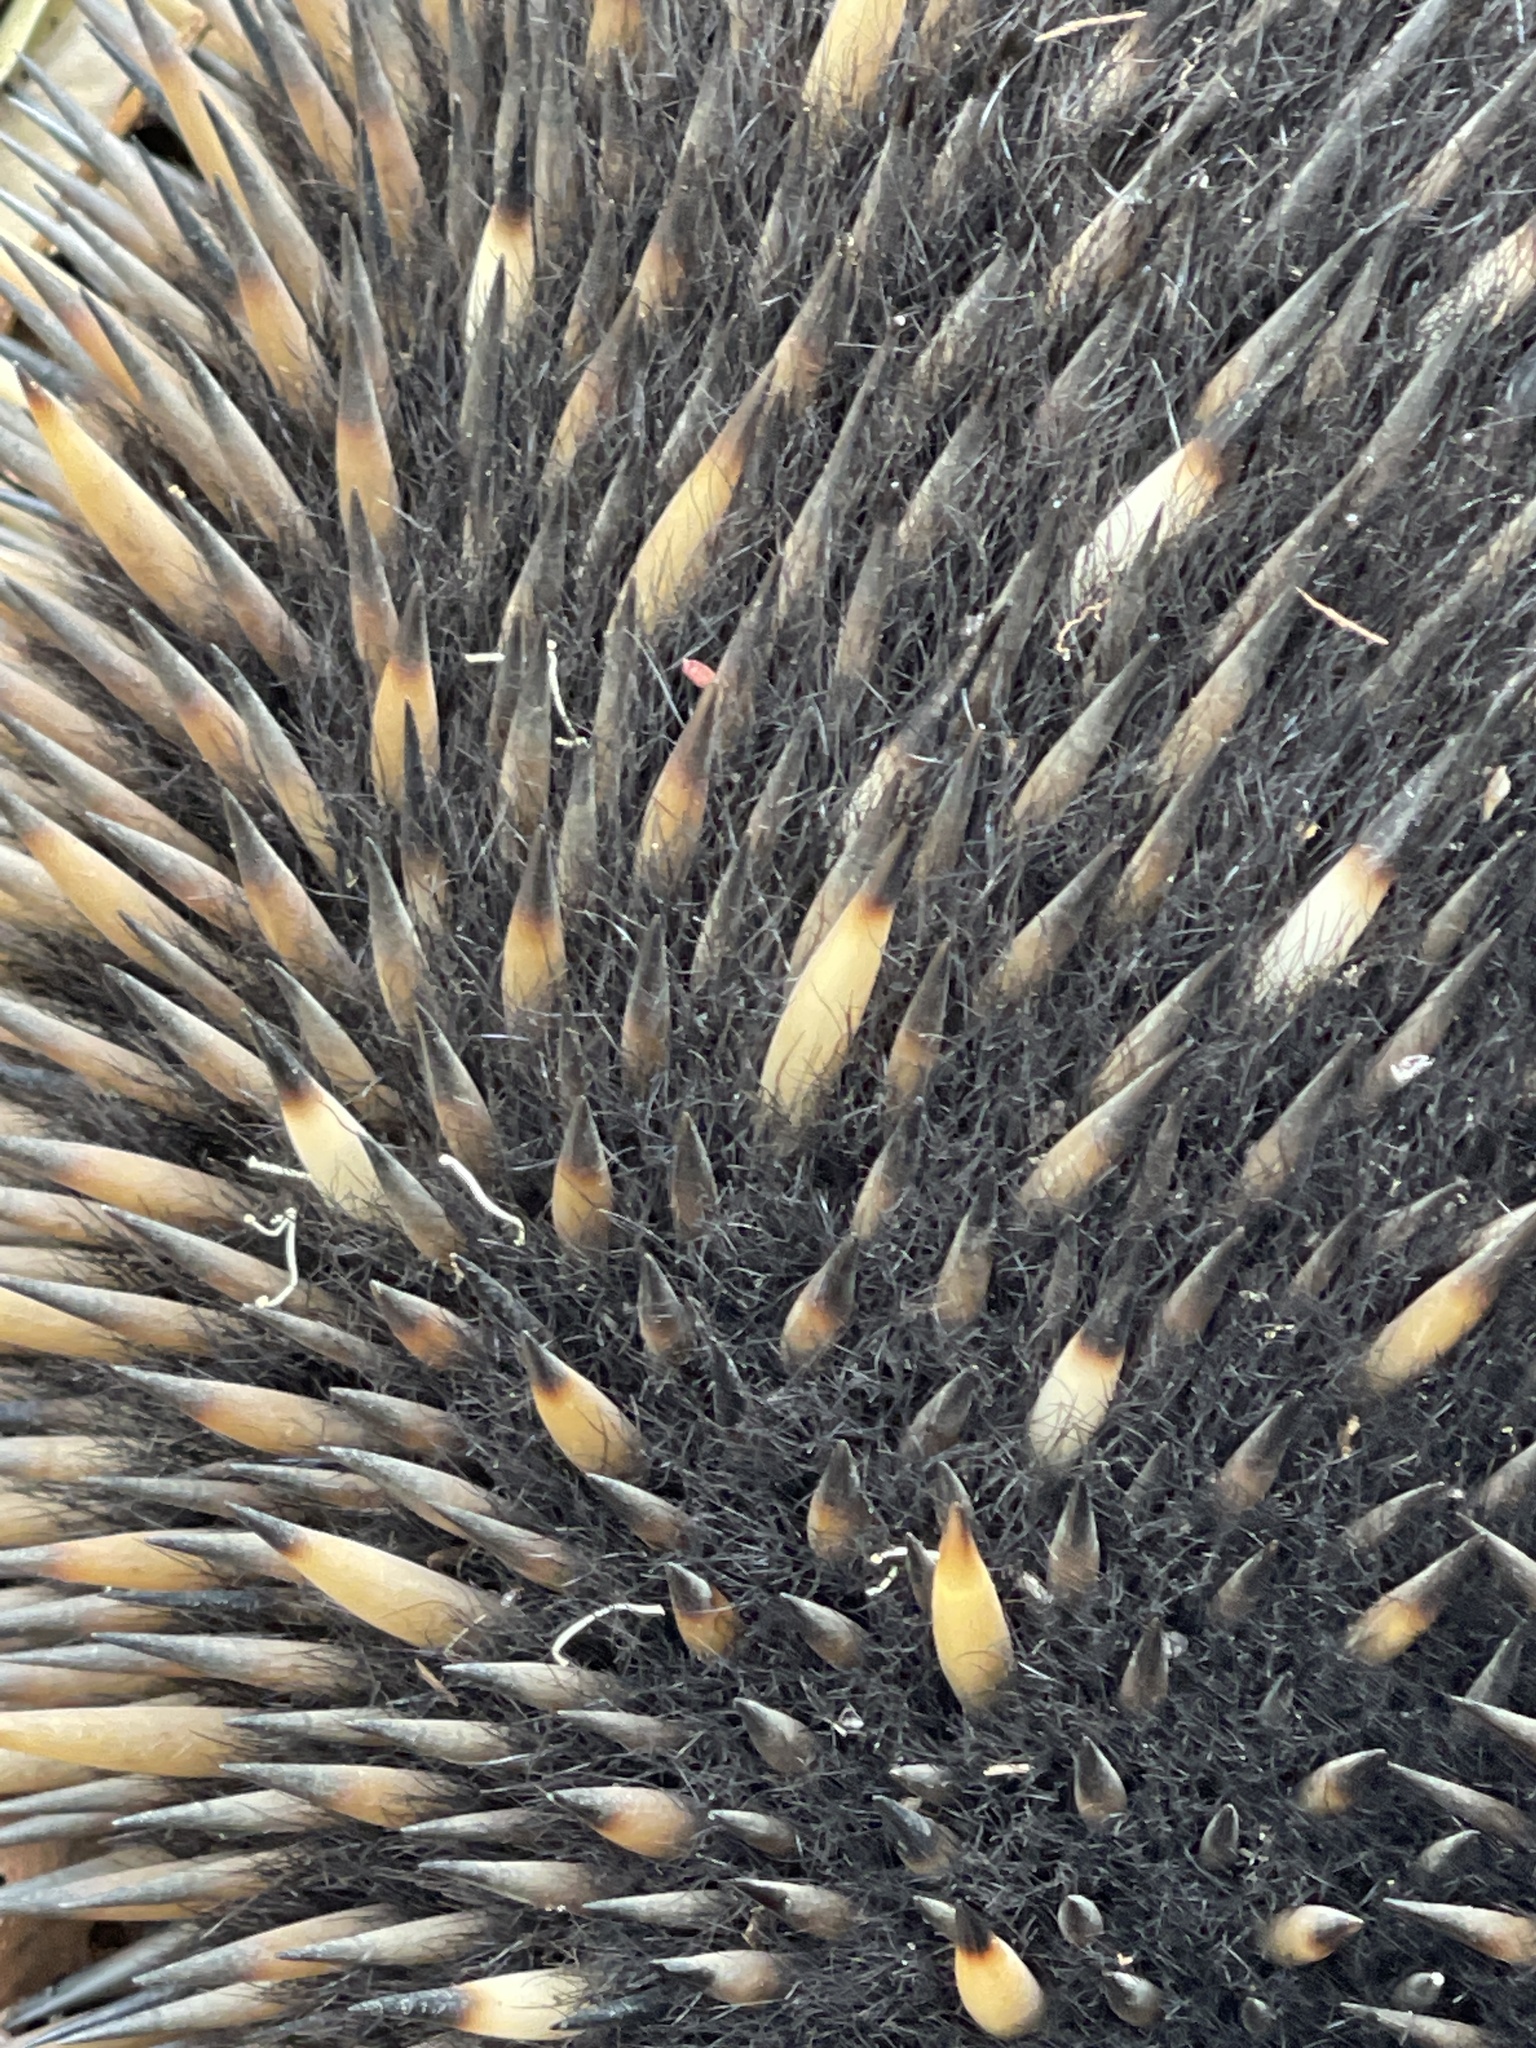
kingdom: Animalia
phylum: Chordata
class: Mammalia
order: Monotremata
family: Tachyglossidae
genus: Tachyglossus
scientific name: Tachyglossus aculeatus
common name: Short-beaked echidna
